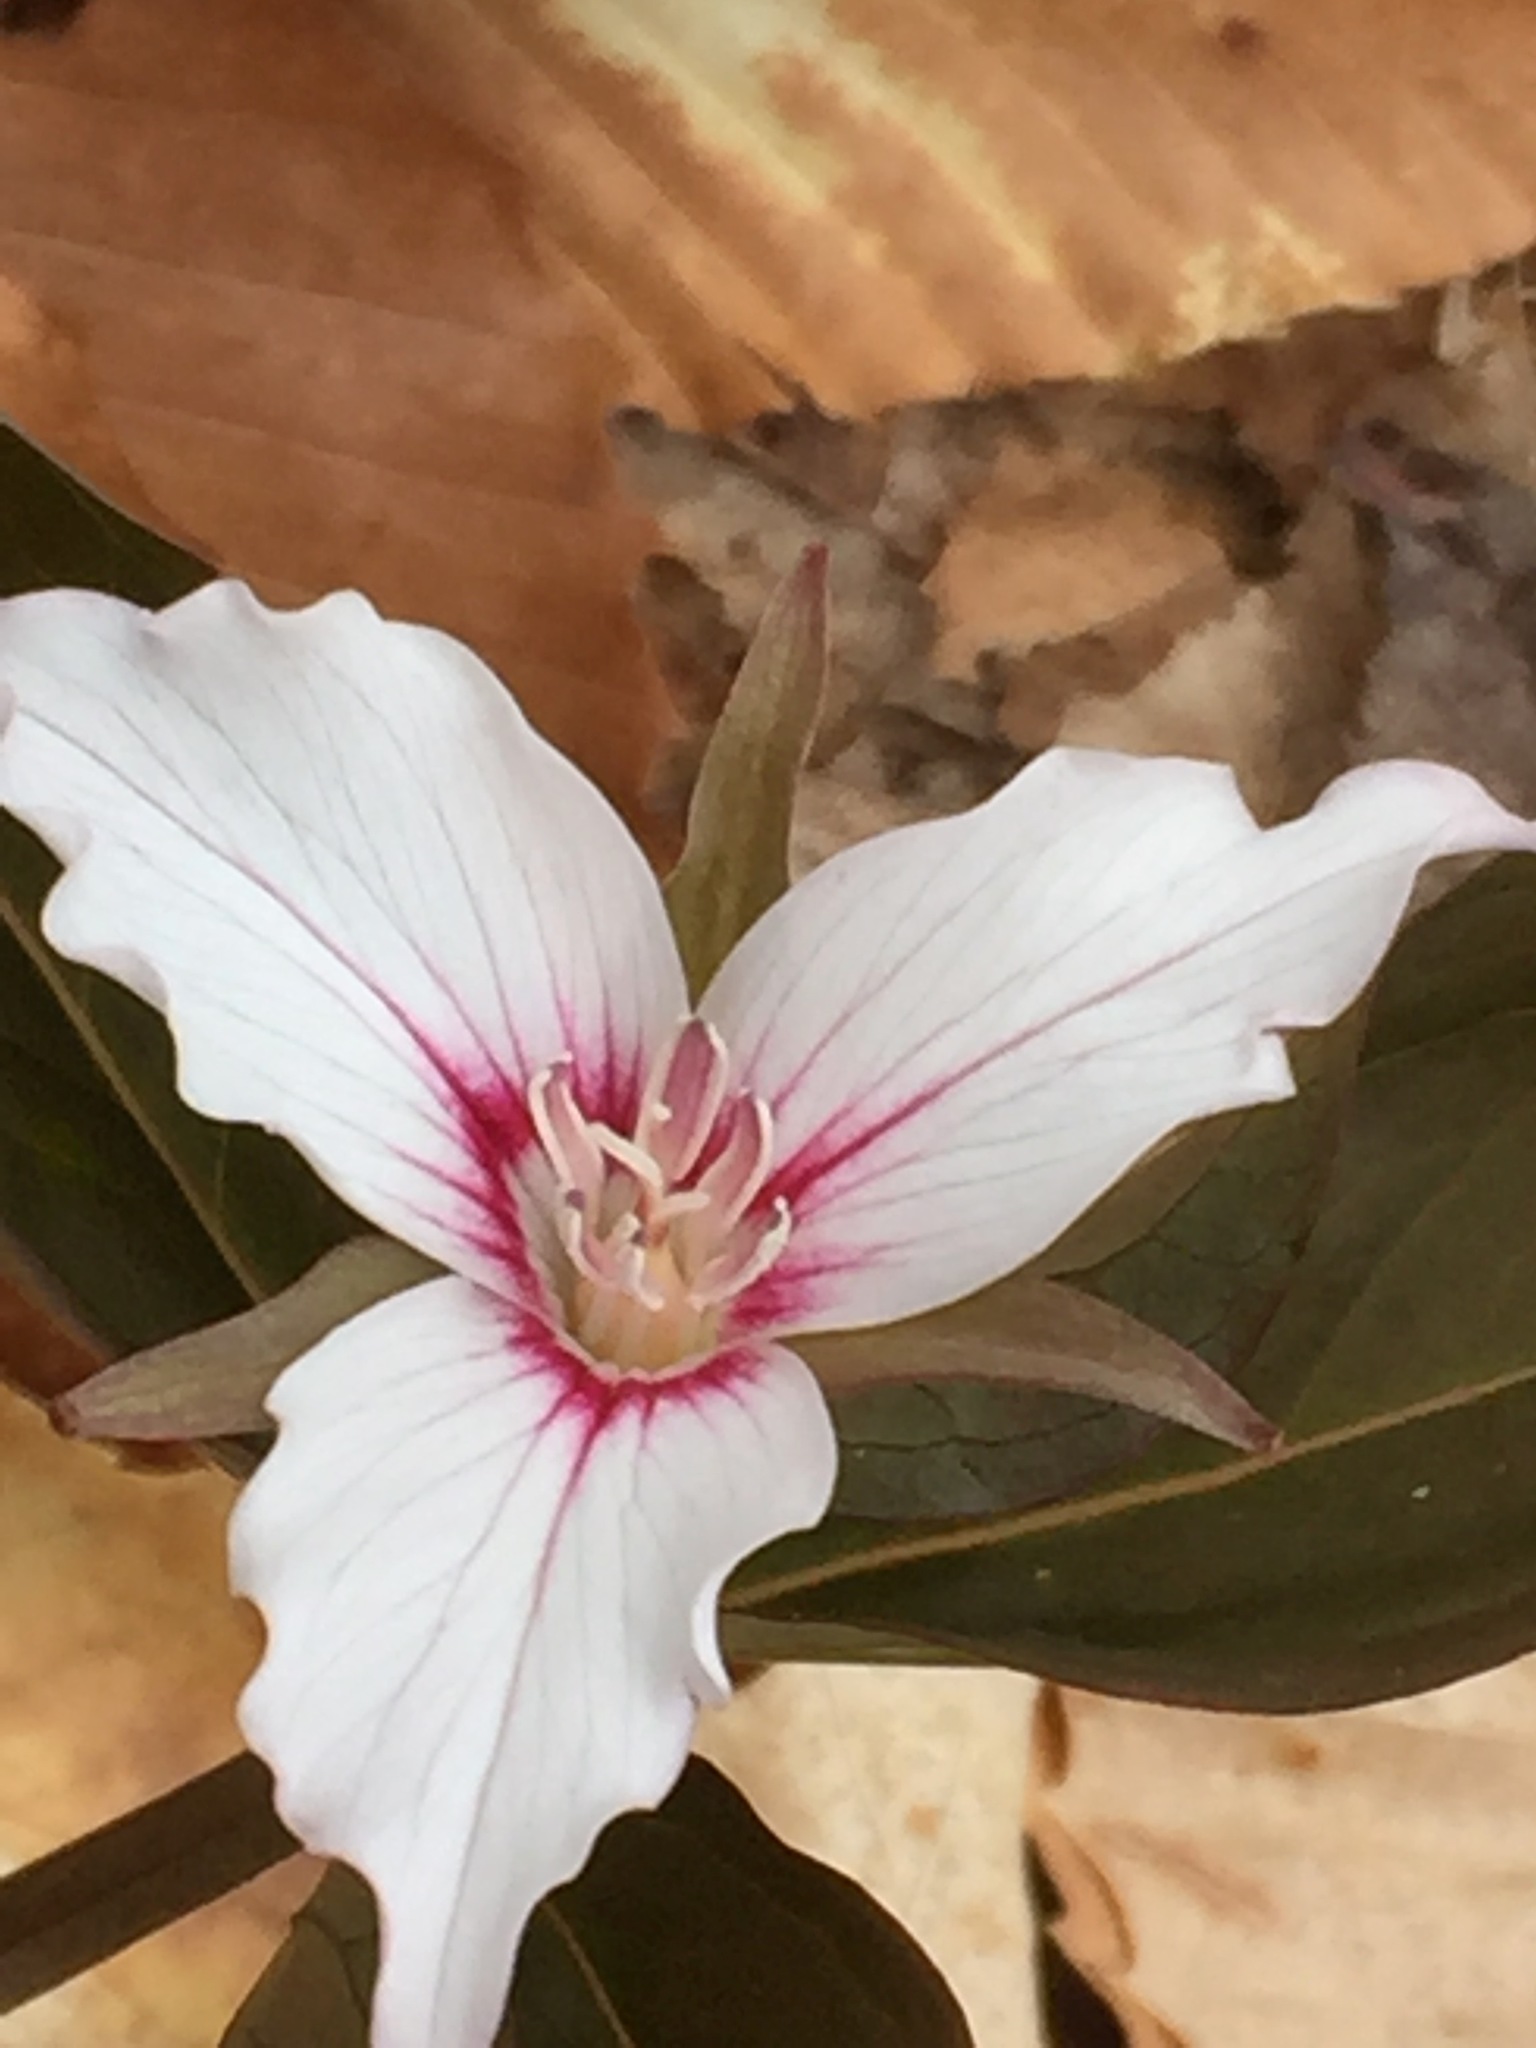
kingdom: Plantae
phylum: Tracheophyta
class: Liliopsida
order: Liliales
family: Melanthiaceae
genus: Trillium
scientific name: Trillium undulatum
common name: Paint trillium
